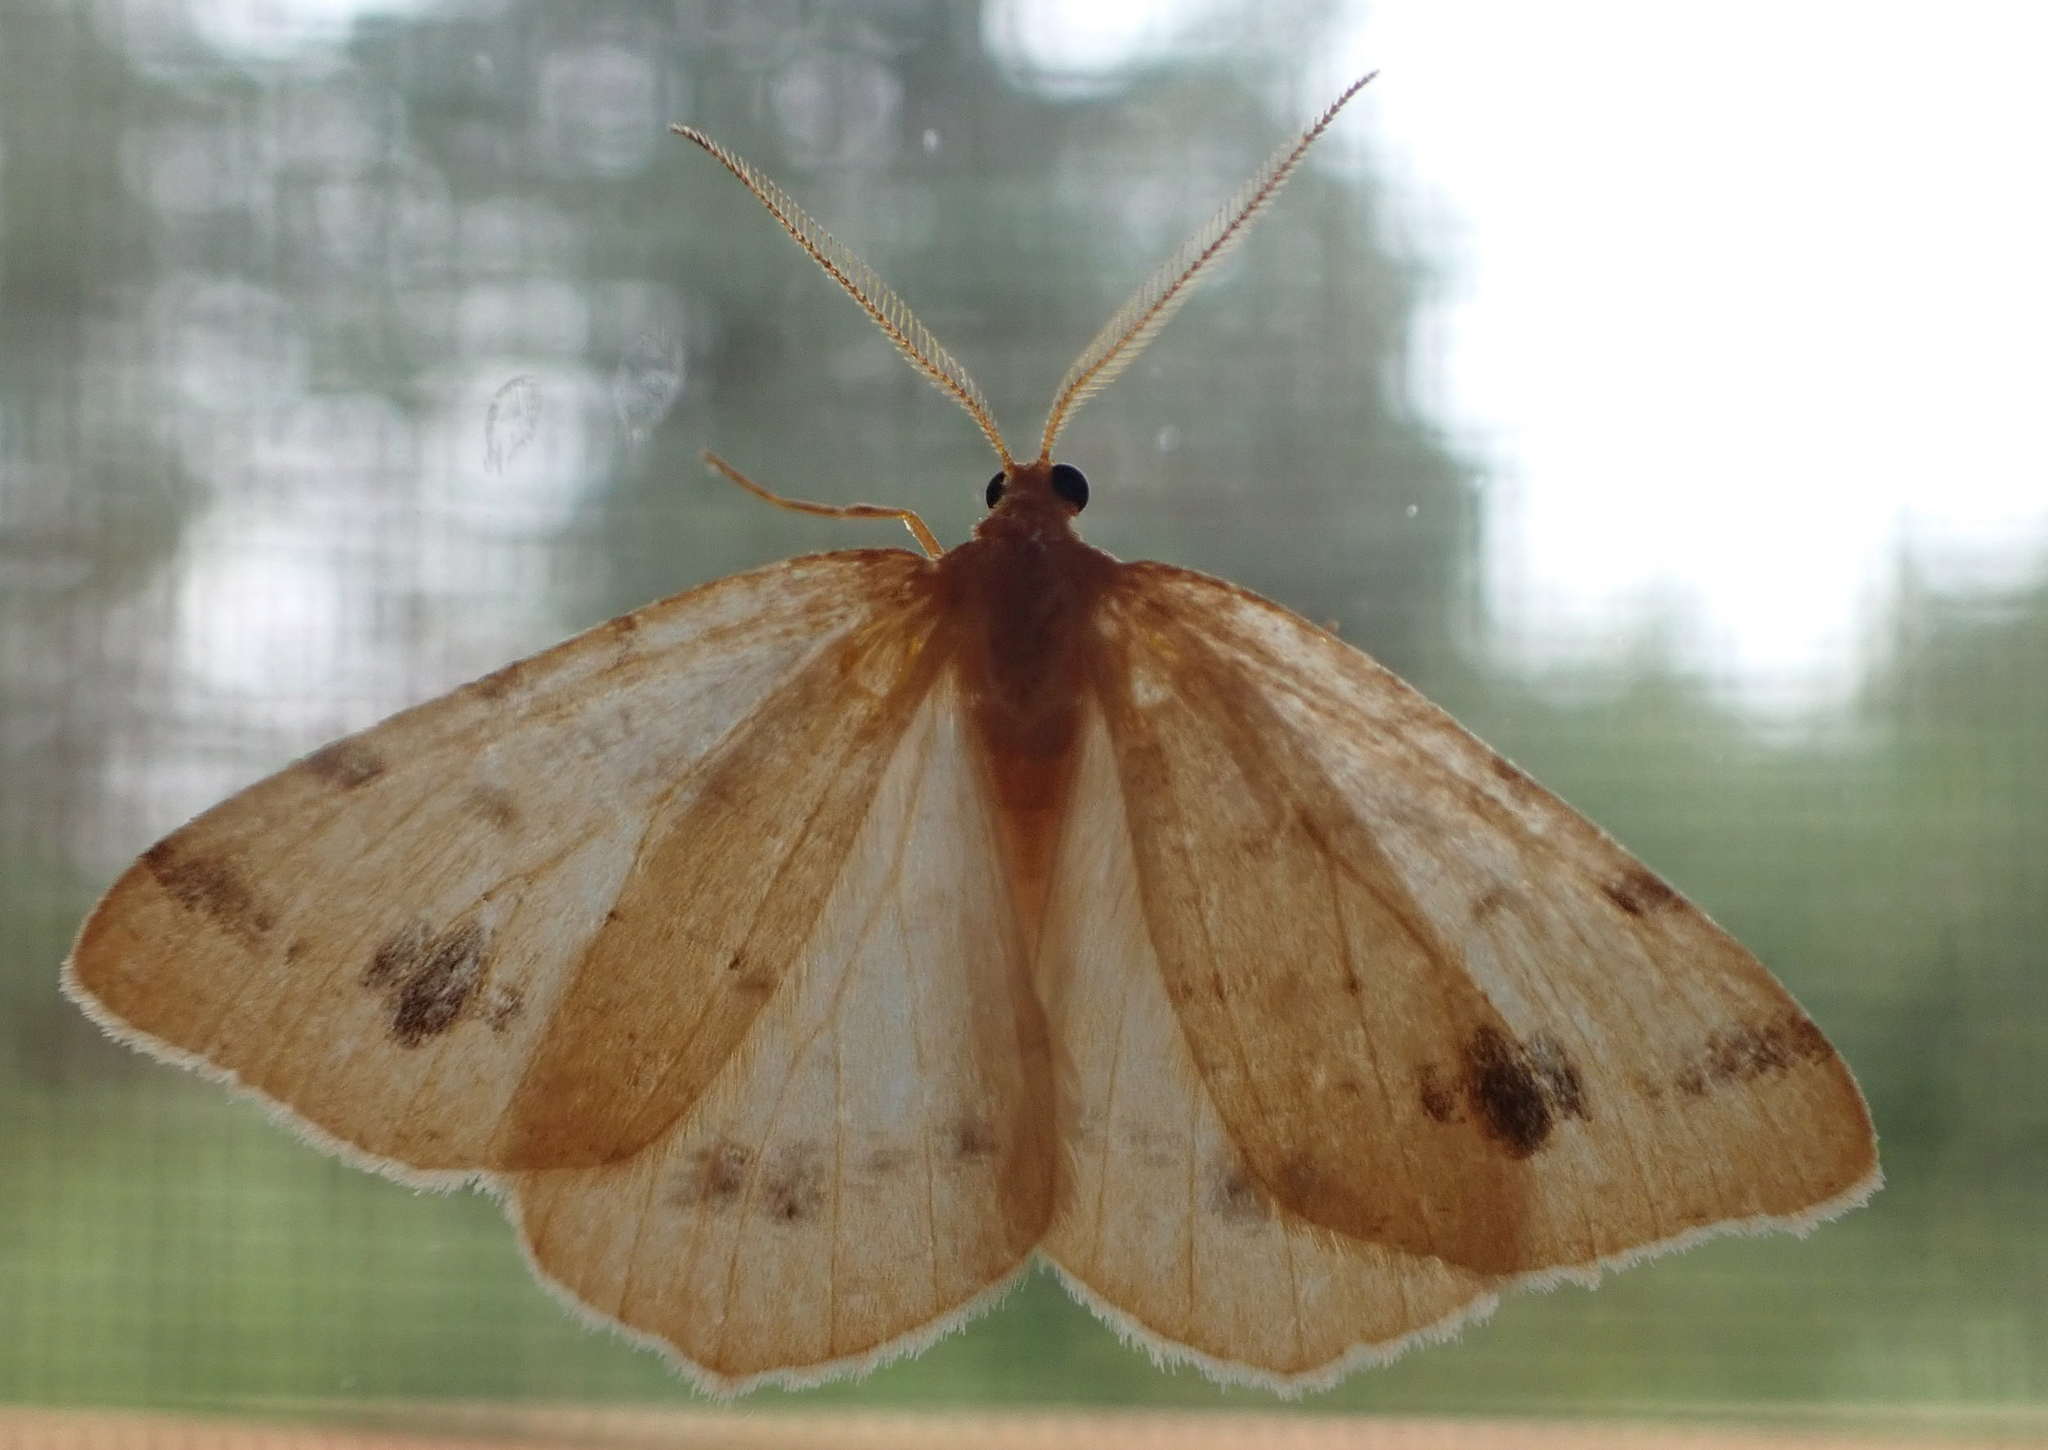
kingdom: Animalia
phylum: Arthropoda
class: Insecta
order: Lepidoptera
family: Geometridae
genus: Macaria
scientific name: Macaria ribearia
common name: Currant spanworm moth
